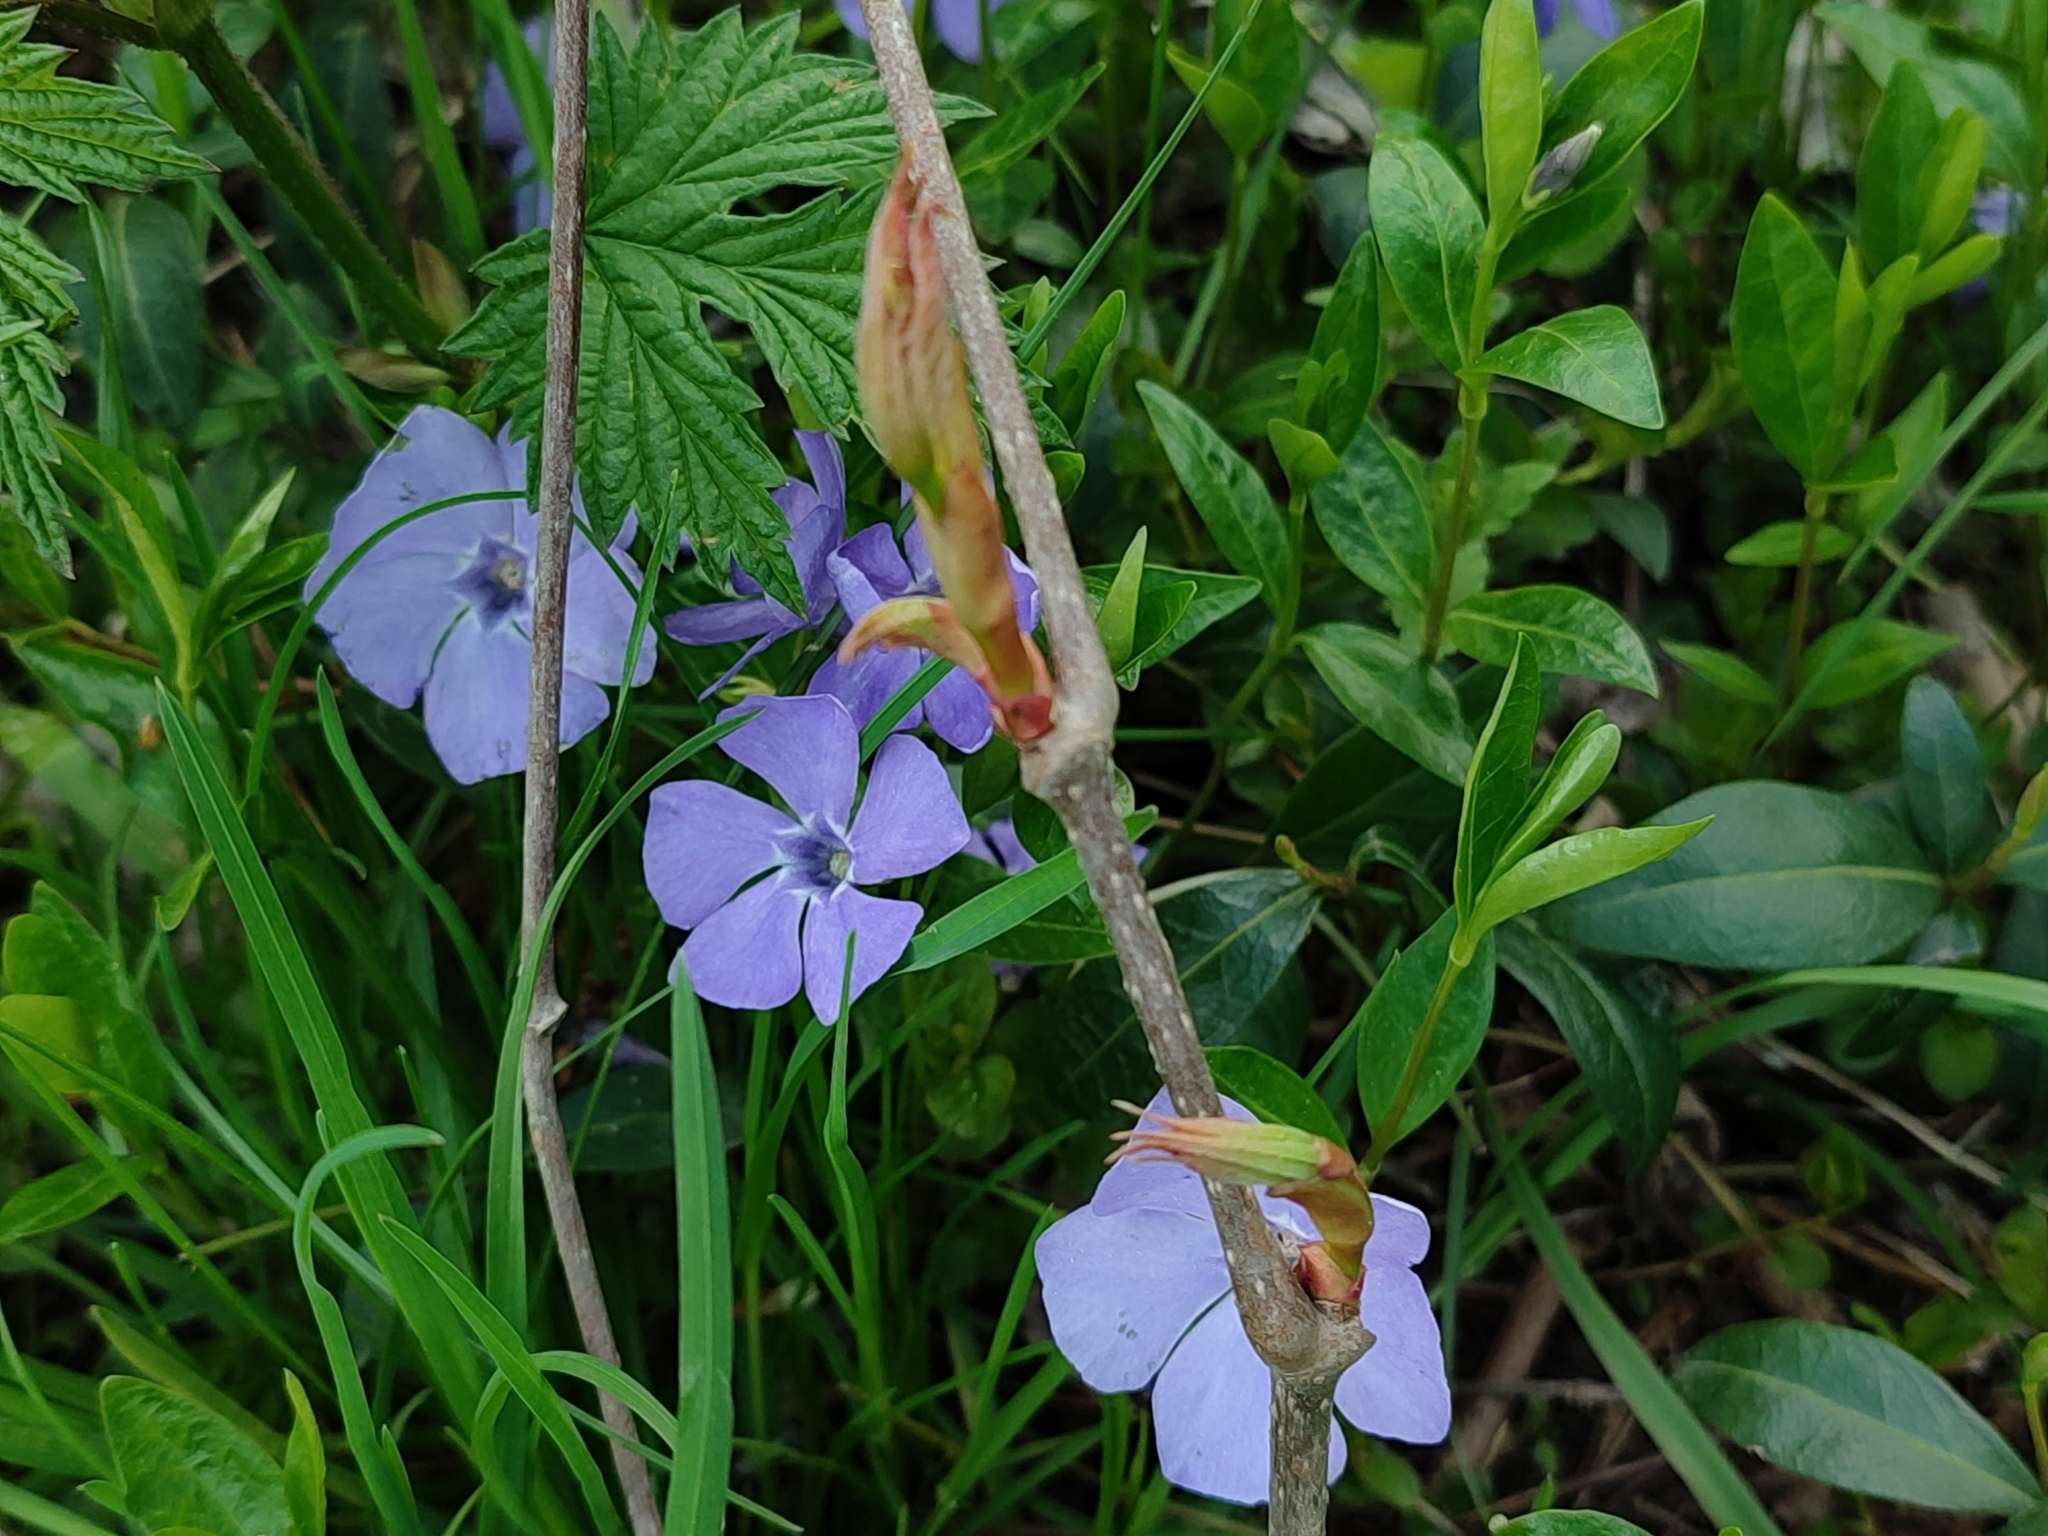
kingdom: Plantae
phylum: Tracheophyta
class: Magnoliopsida
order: Gentianales
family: Apocynaceae
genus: Vinca
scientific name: Vinca minor
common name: Lesser periwinkle
